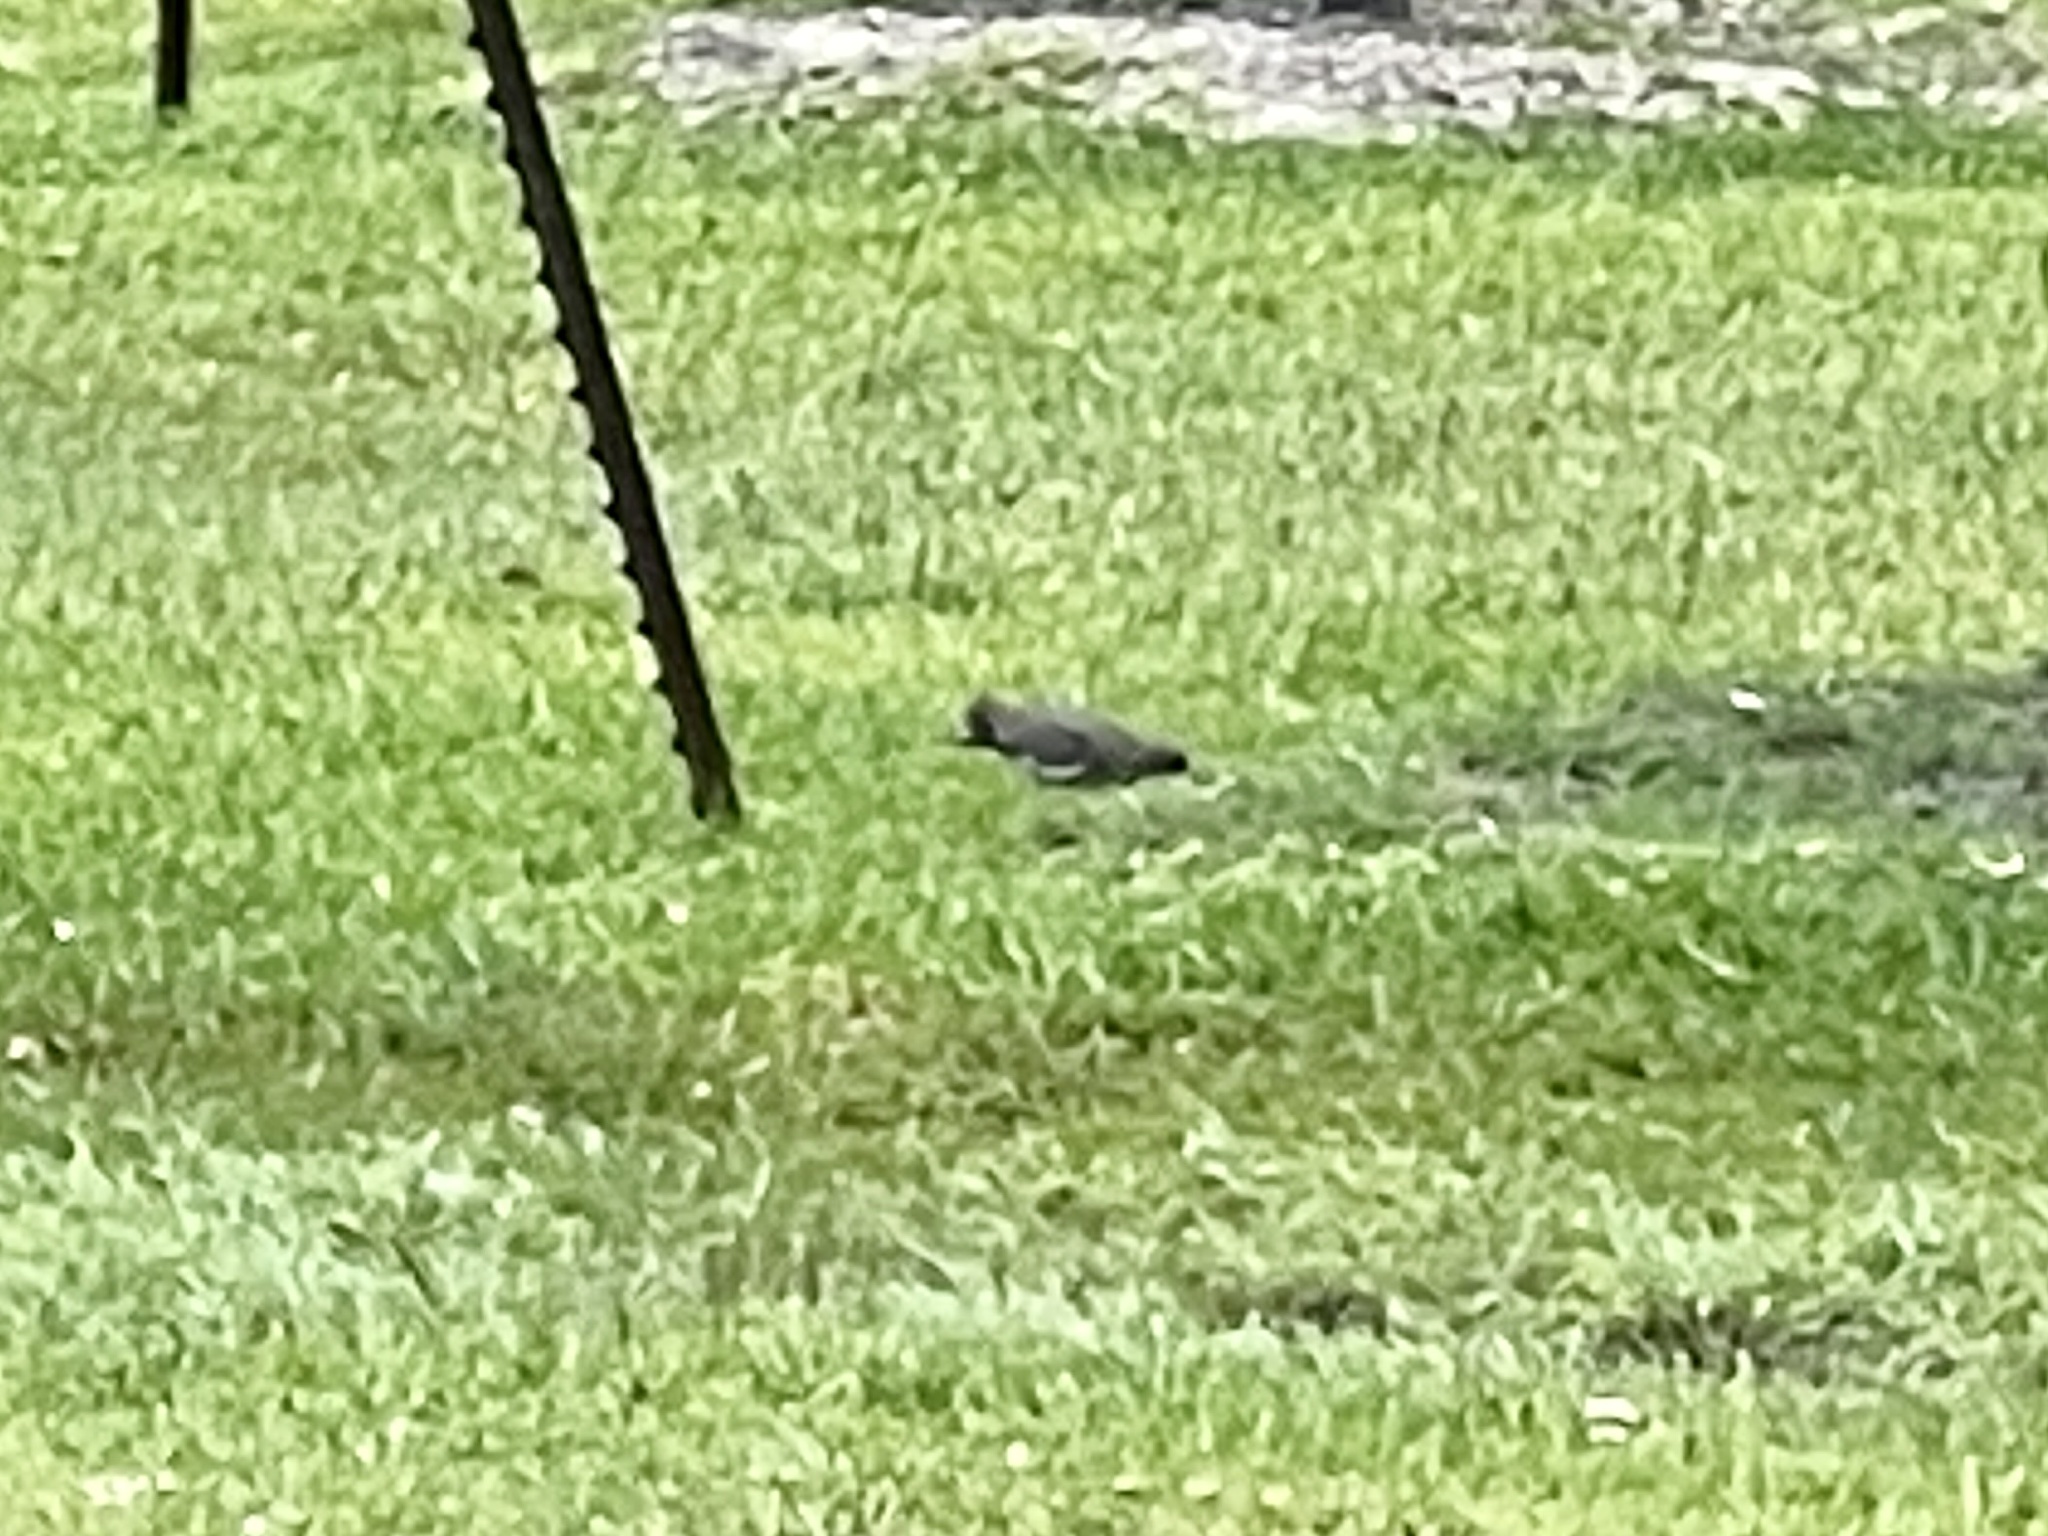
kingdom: Animalia
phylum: Chordata
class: Aves
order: Columbiformes
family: Columbidae
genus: Zenaida
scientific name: Zenaida asiatica
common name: White-winged dove
